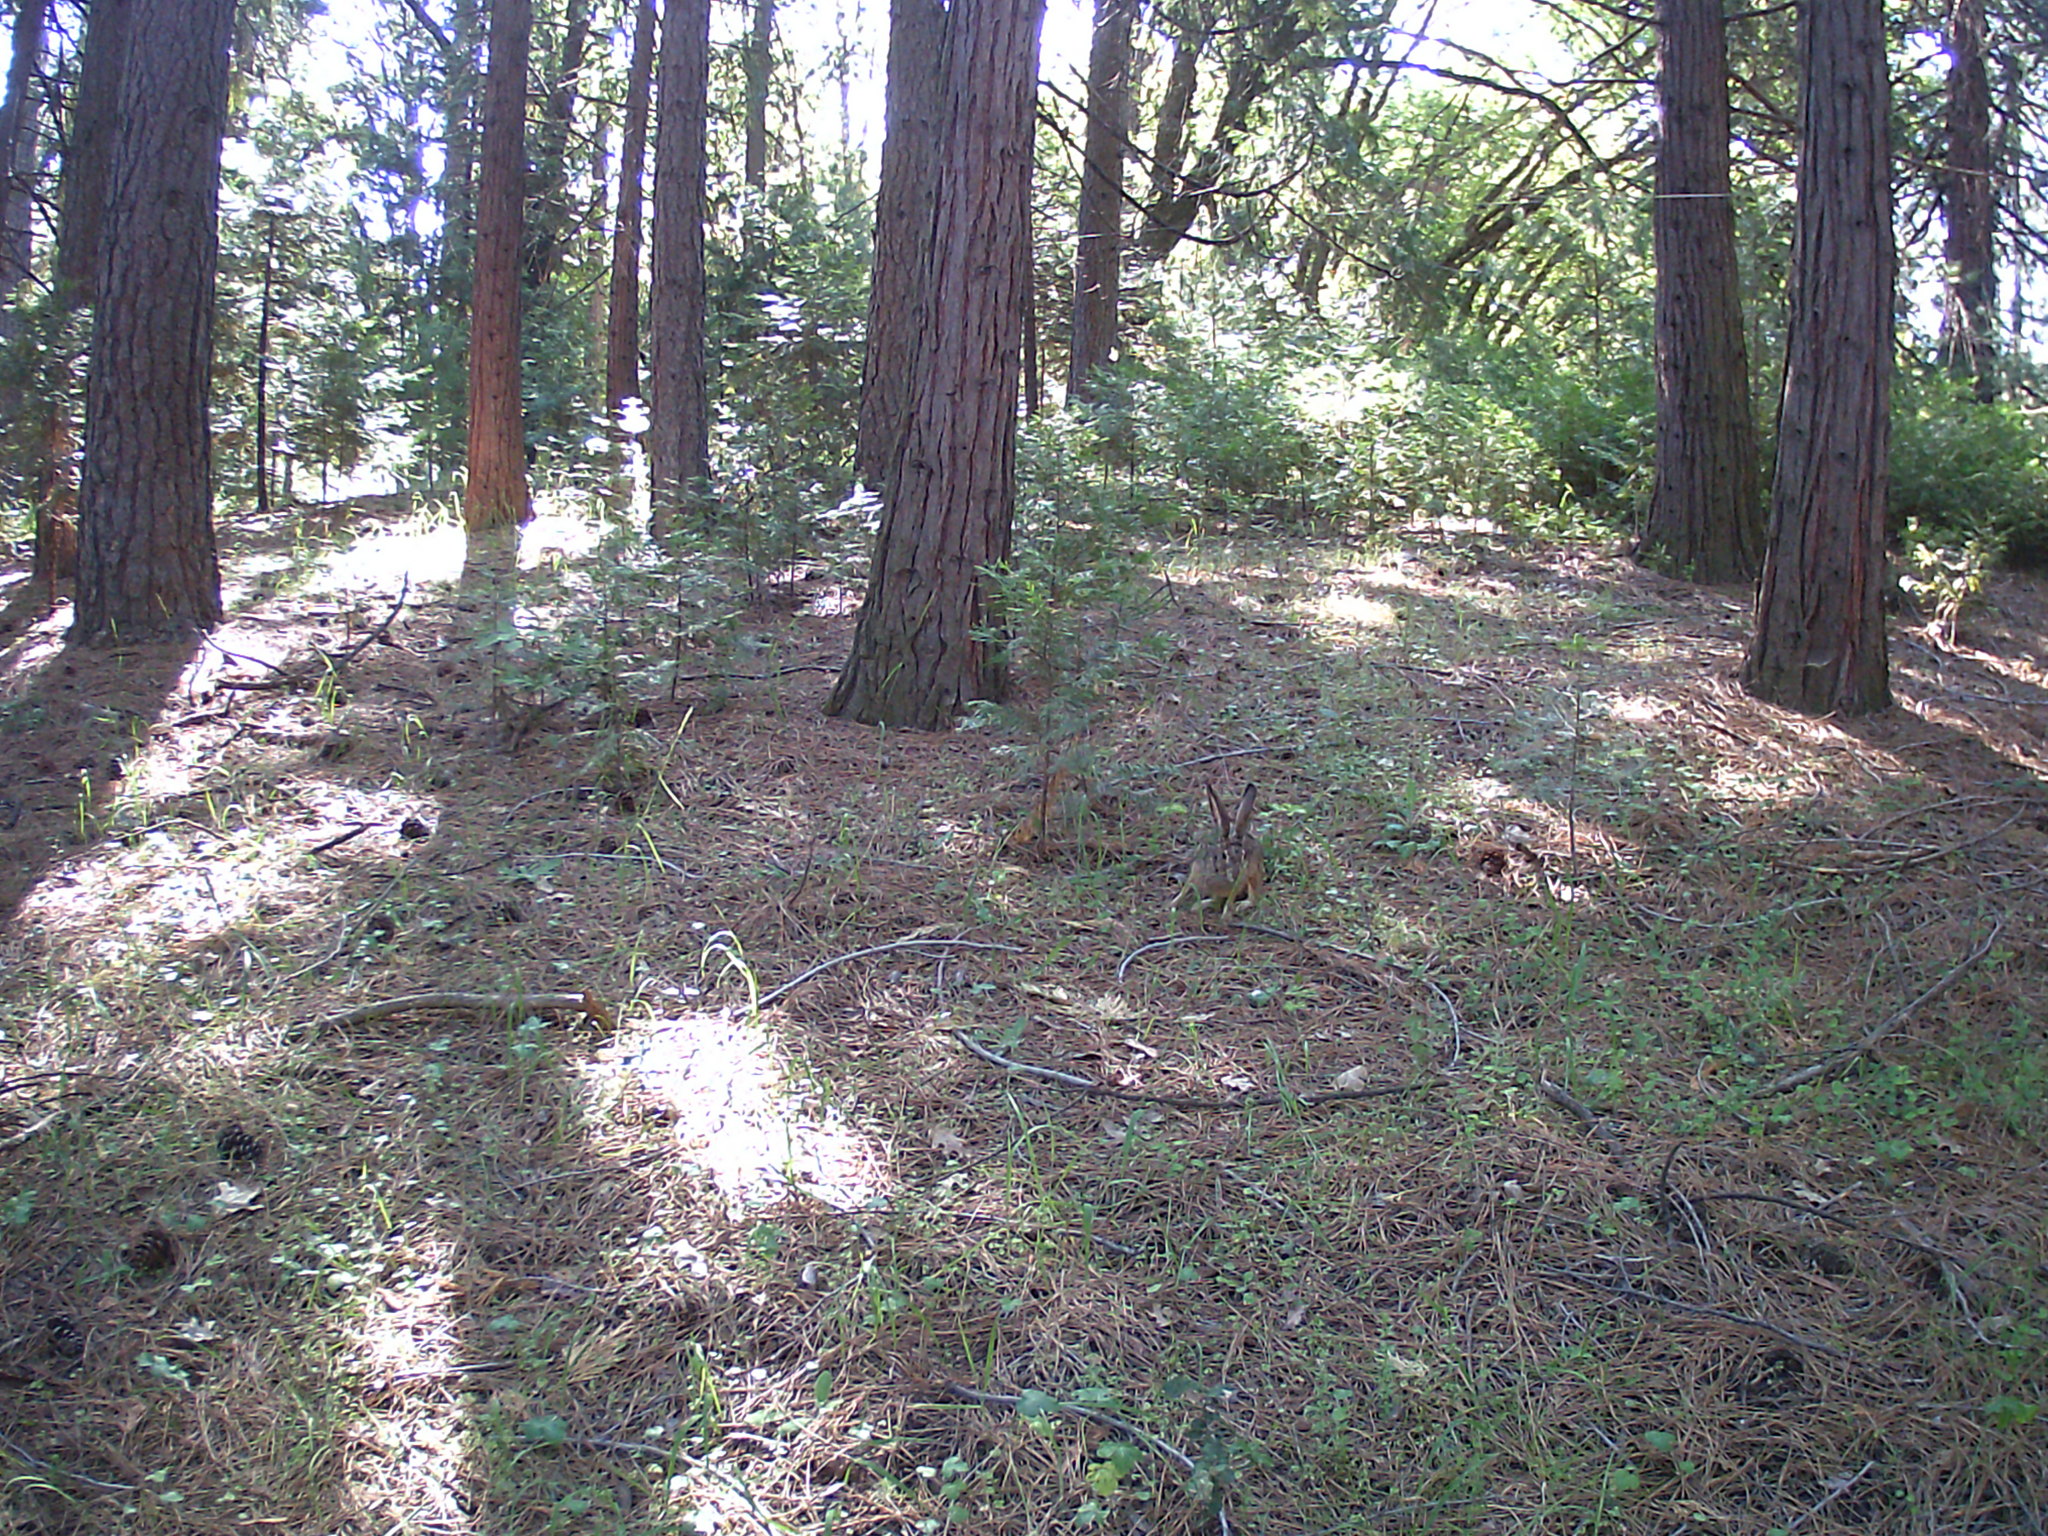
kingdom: Animalia
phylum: Chordata
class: Mammalia
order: Lagomorpha
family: Leporidae
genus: Lepus
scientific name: Lepus californicus
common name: Black-tailed jackrabbit
